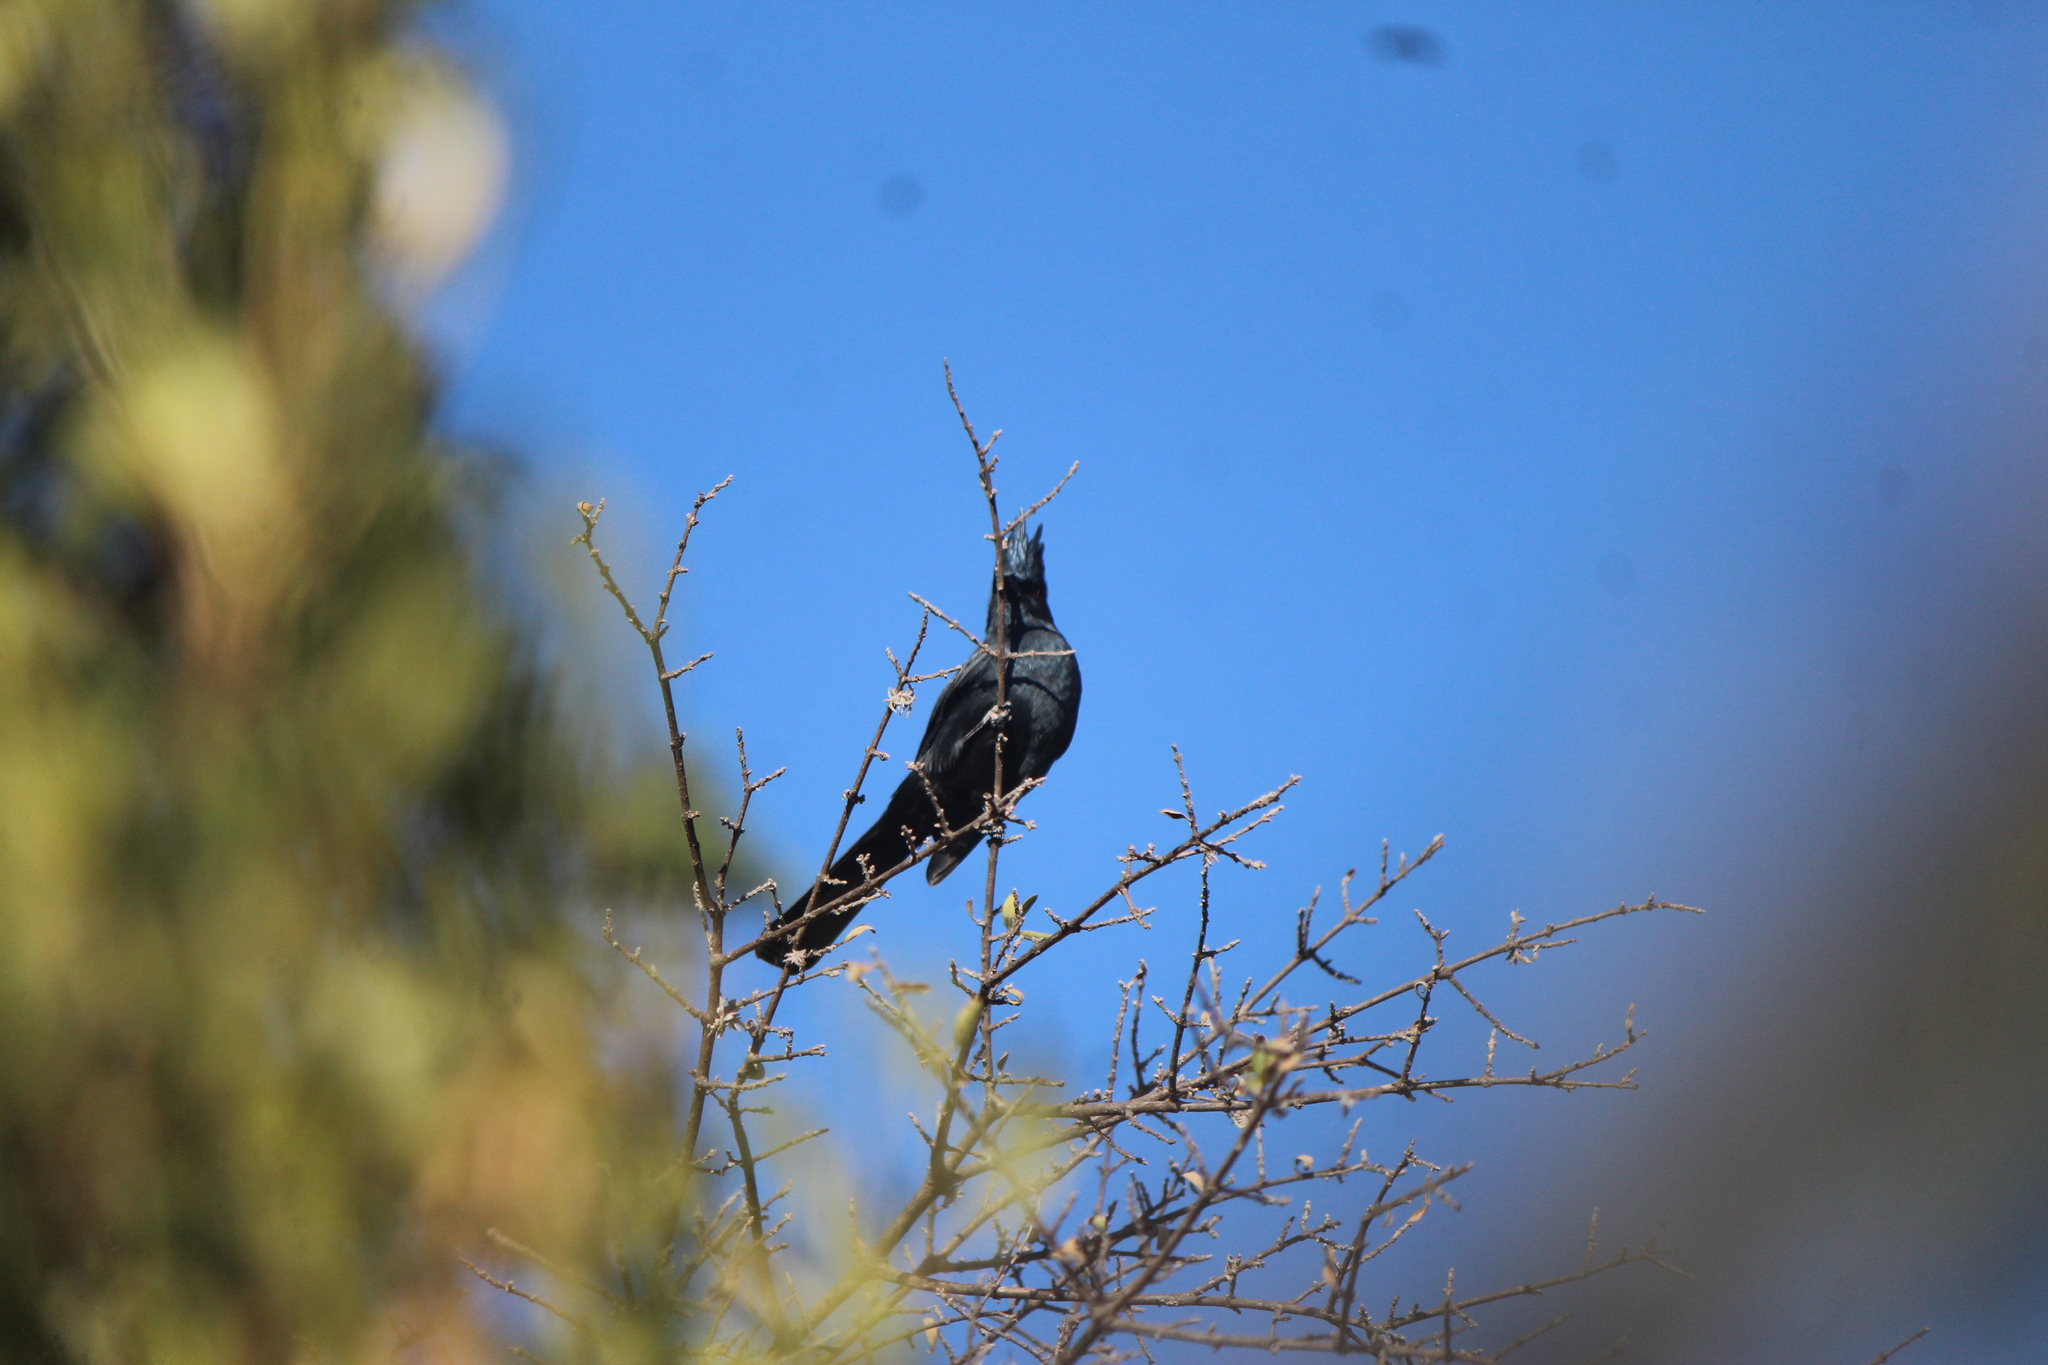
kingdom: Animalia
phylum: Chordata
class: Aves
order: Passeriformes
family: Ptilogonatidae
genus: Phainopepla
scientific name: Phainopepla nitens
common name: Phainopepla
